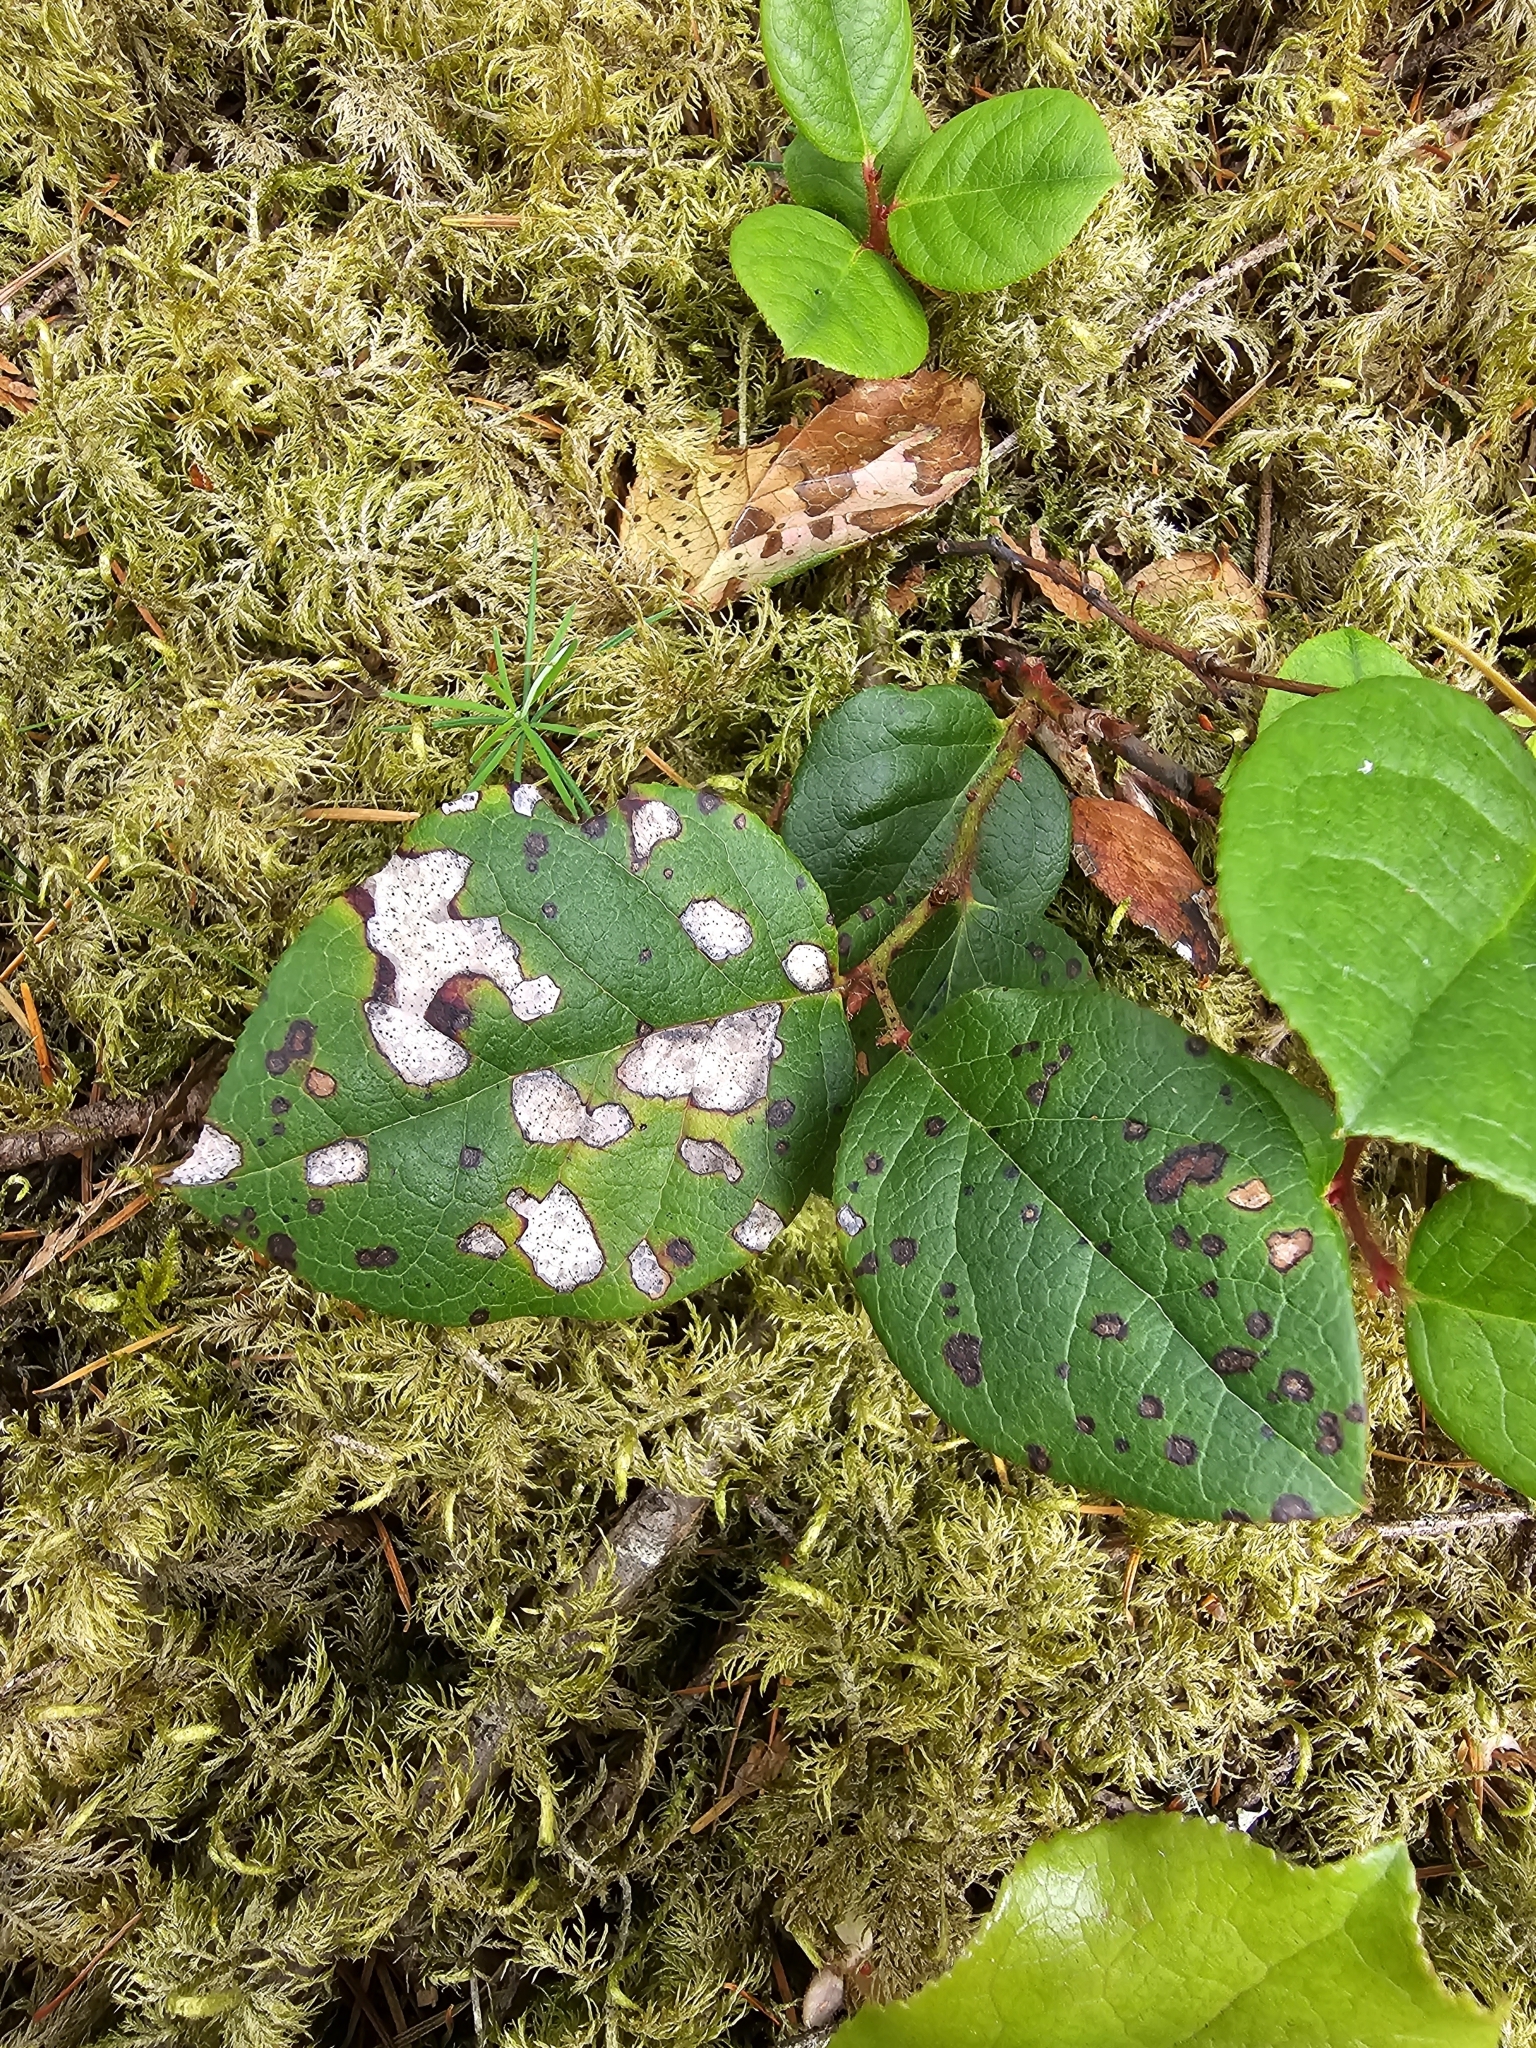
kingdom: Animalia
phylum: Arthropoda
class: Insecta
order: Lepidoptera
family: Gracillariidae
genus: Cameraria
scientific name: Cameraria gaultheriella
